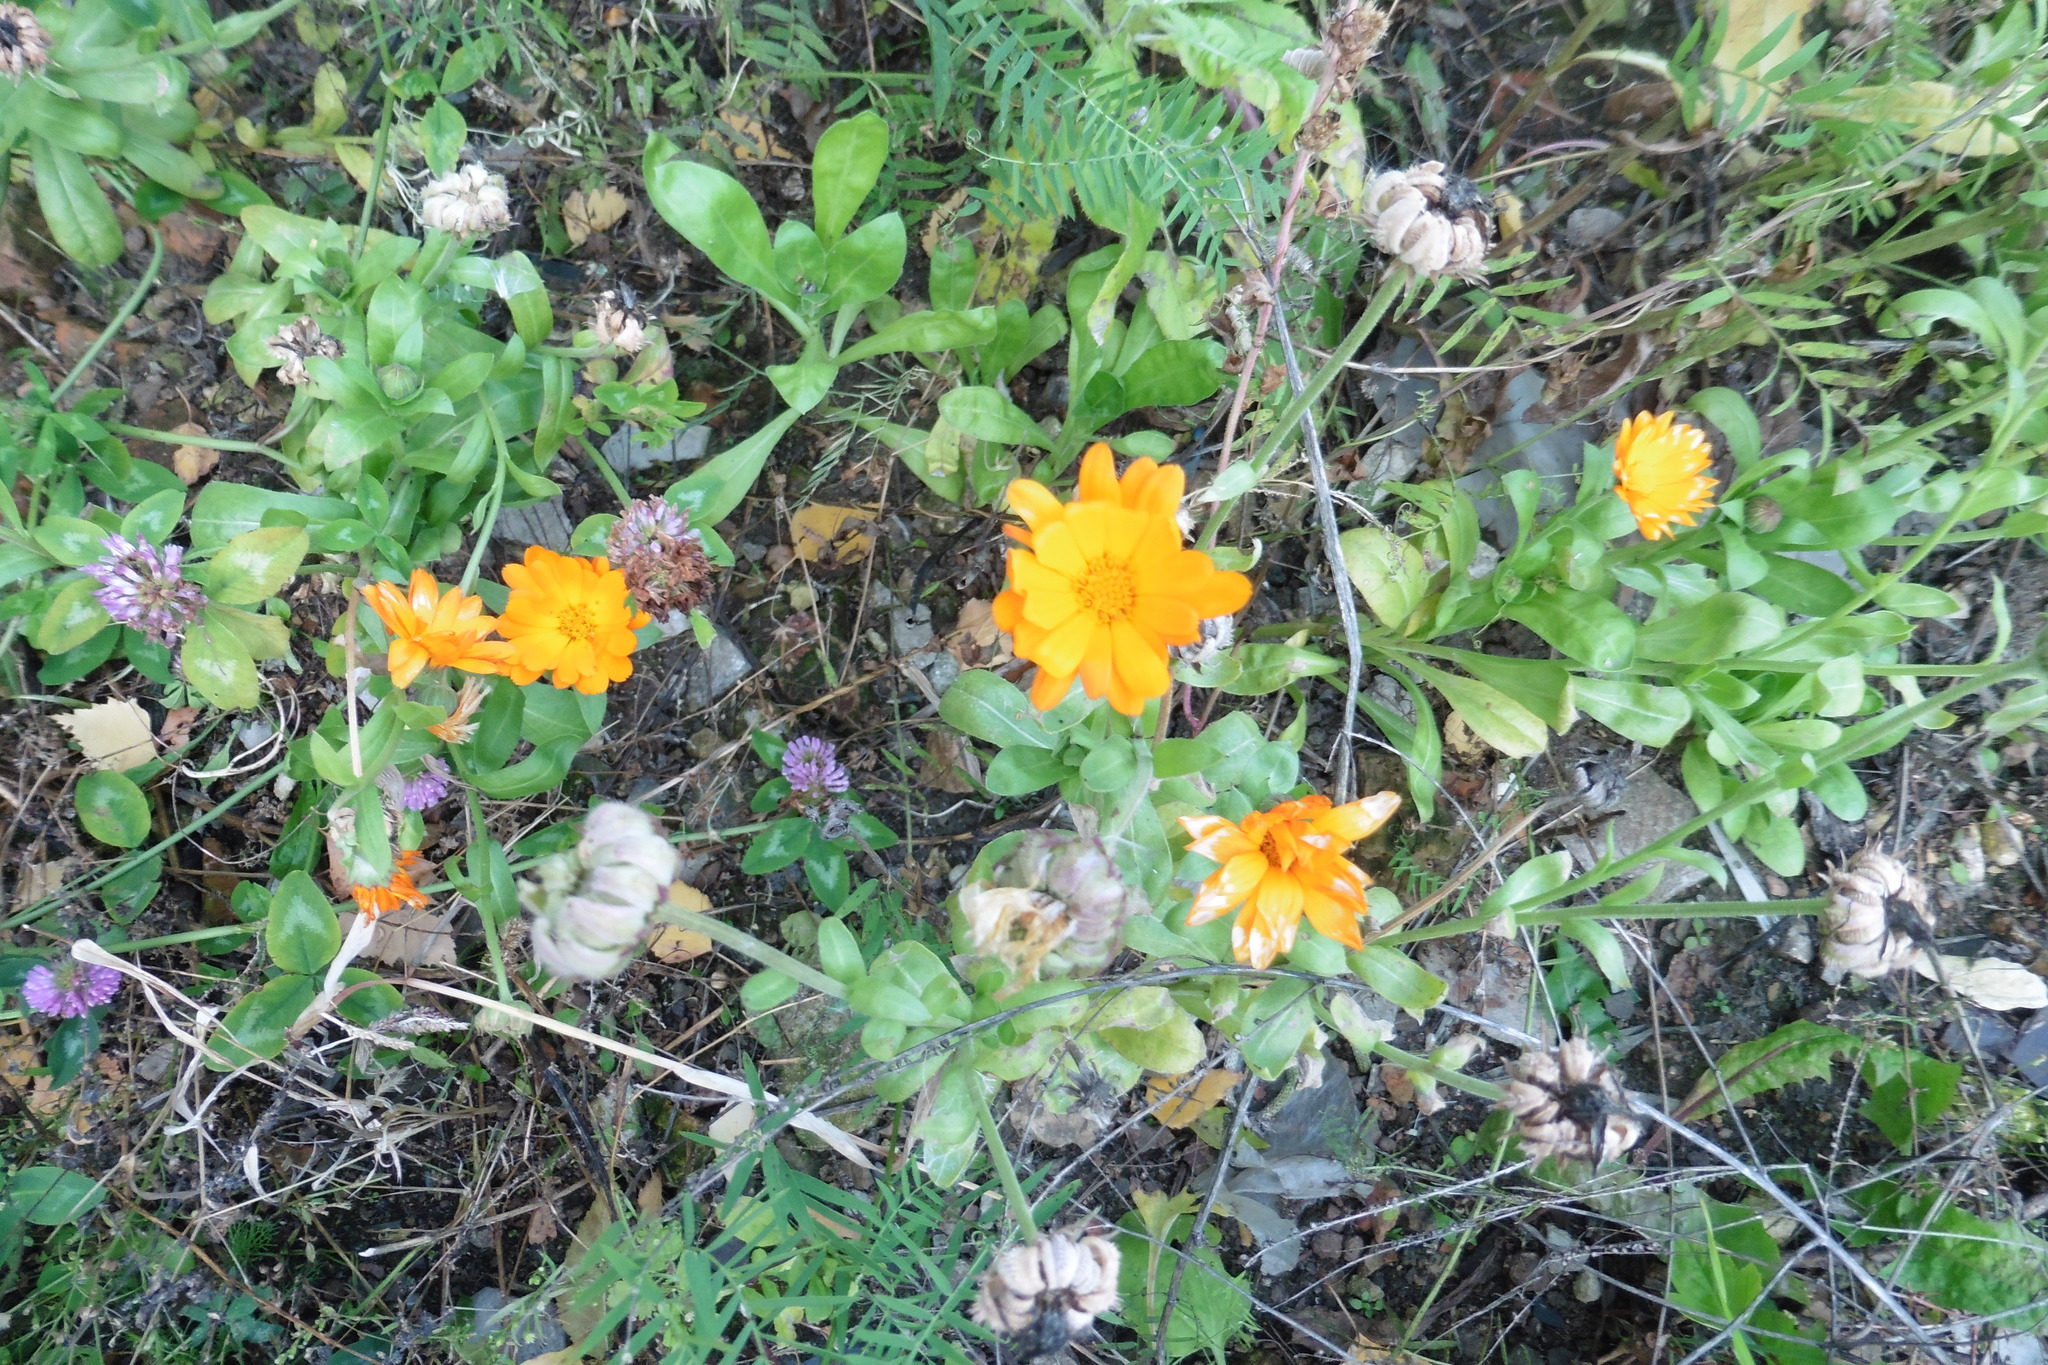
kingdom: Plantae
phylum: Tracheophyta
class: Magnoliopsida
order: Asterales
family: Asteraceae
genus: Calendula
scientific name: Calendula officinalis
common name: Pot marigold
